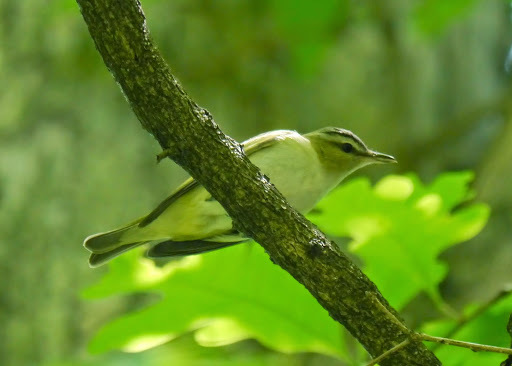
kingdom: Animalia
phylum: Chordata
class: Aves
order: Passeriformes
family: Vireonidae
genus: Vireo
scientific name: Vireo olivaceus
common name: Red-eyed vireo
